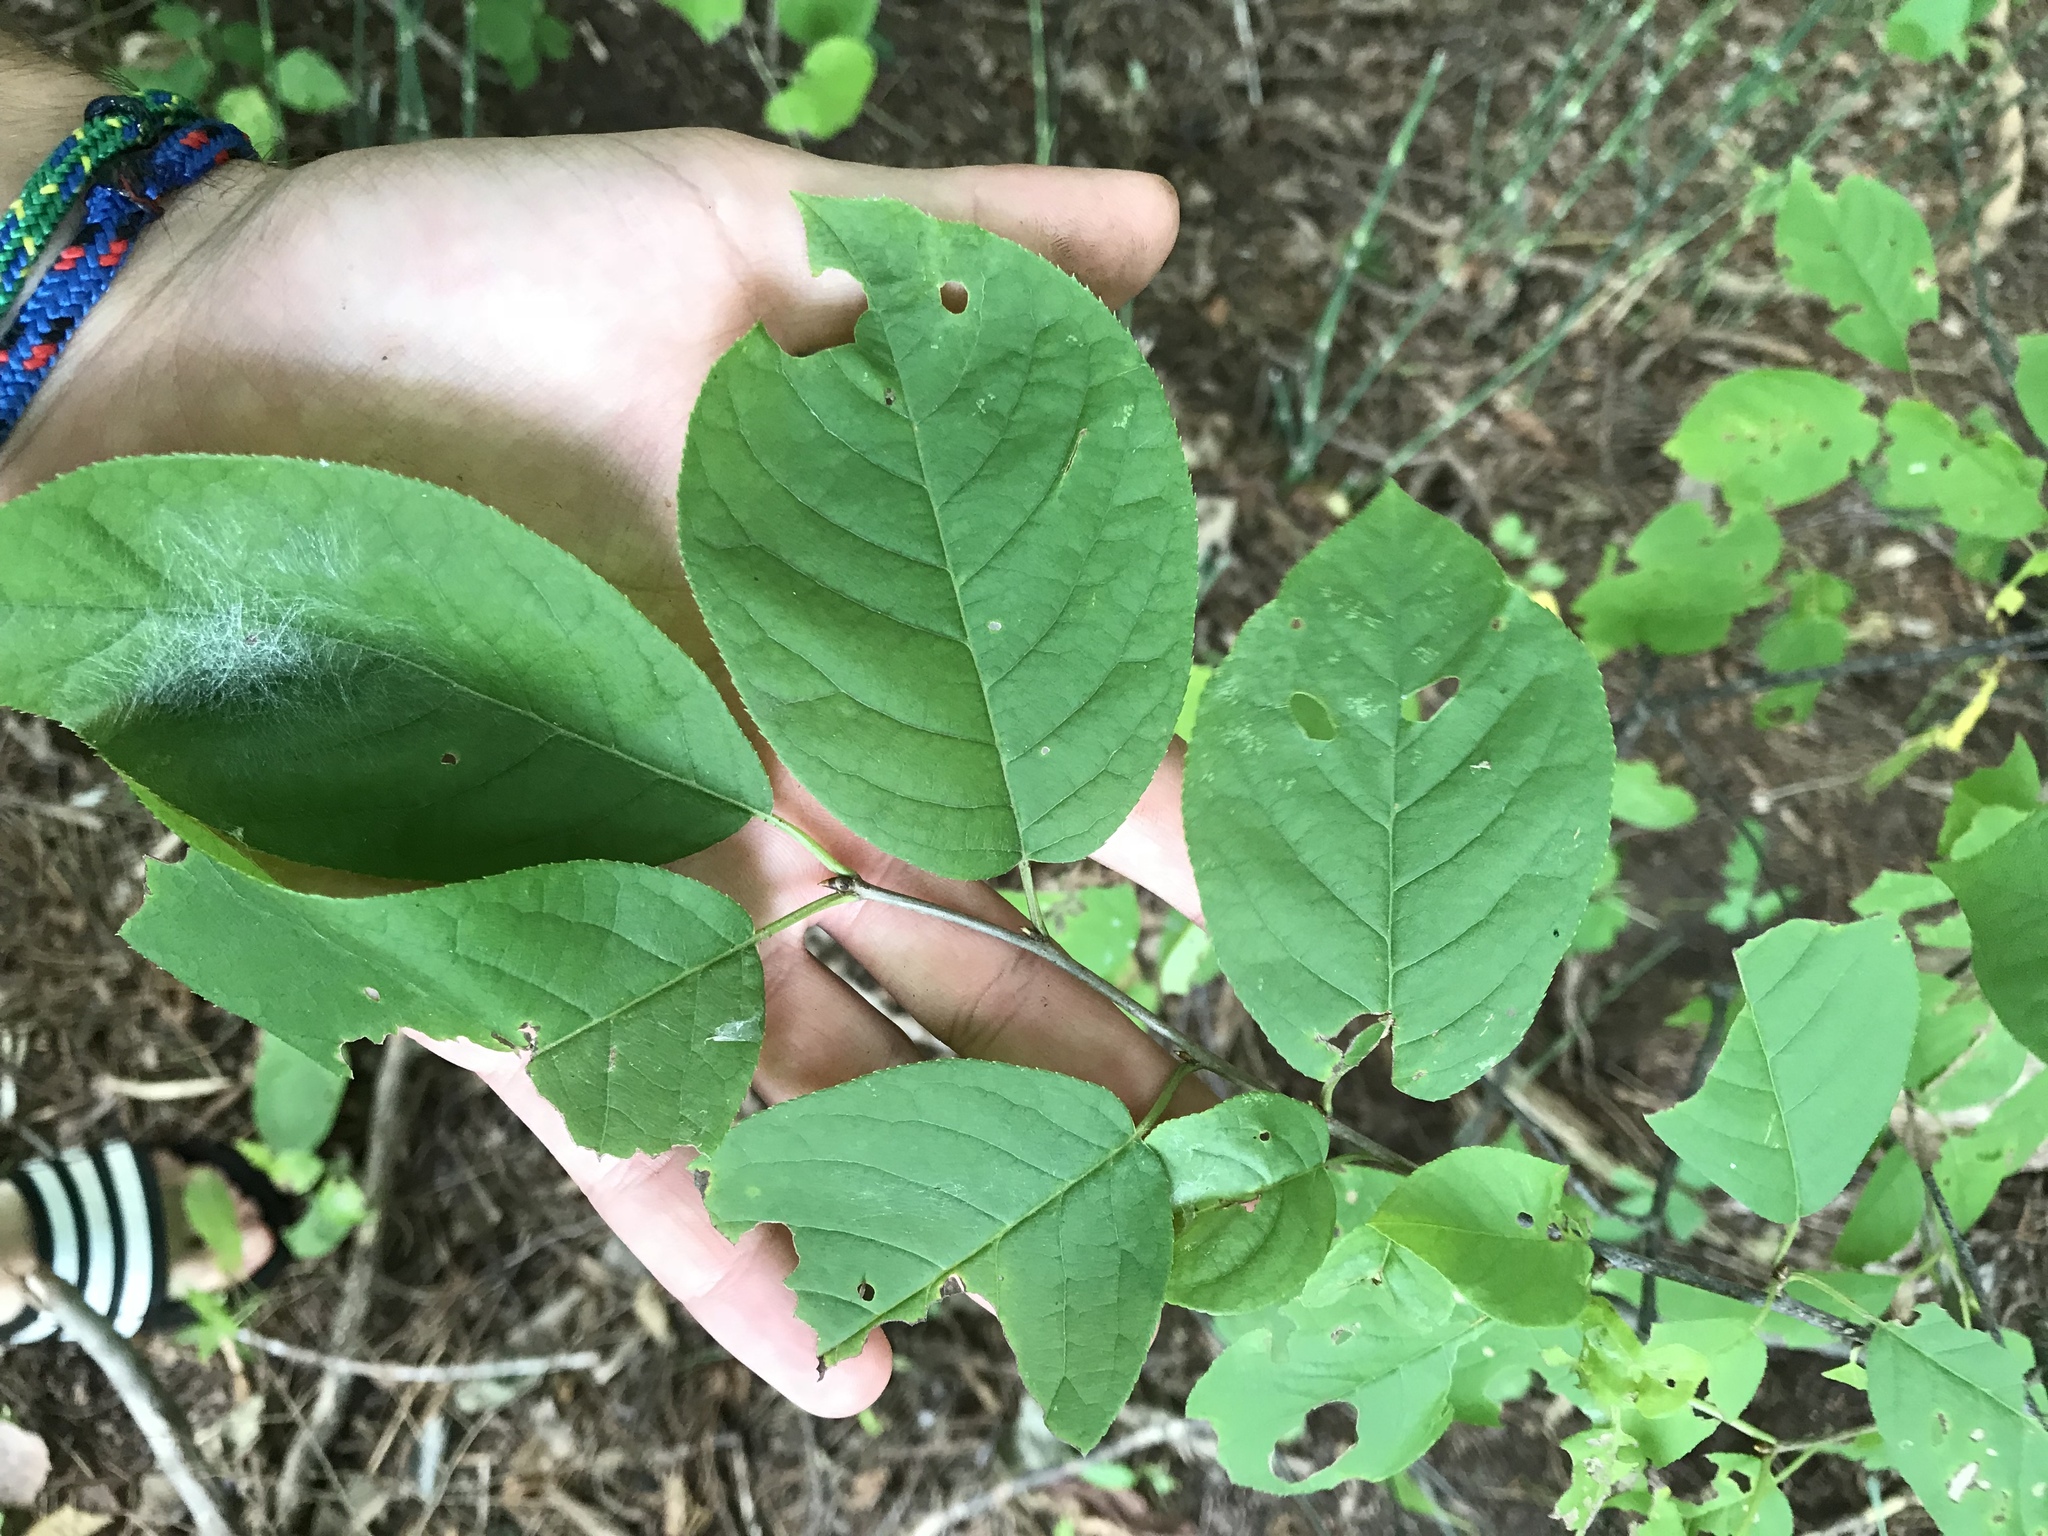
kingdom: Plantae
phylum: Tracheophyta
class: Magnoliopsida
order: Rosales
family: Rosaceae
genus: Prunus
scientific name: Prunus virginiana
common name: Chokecherry
